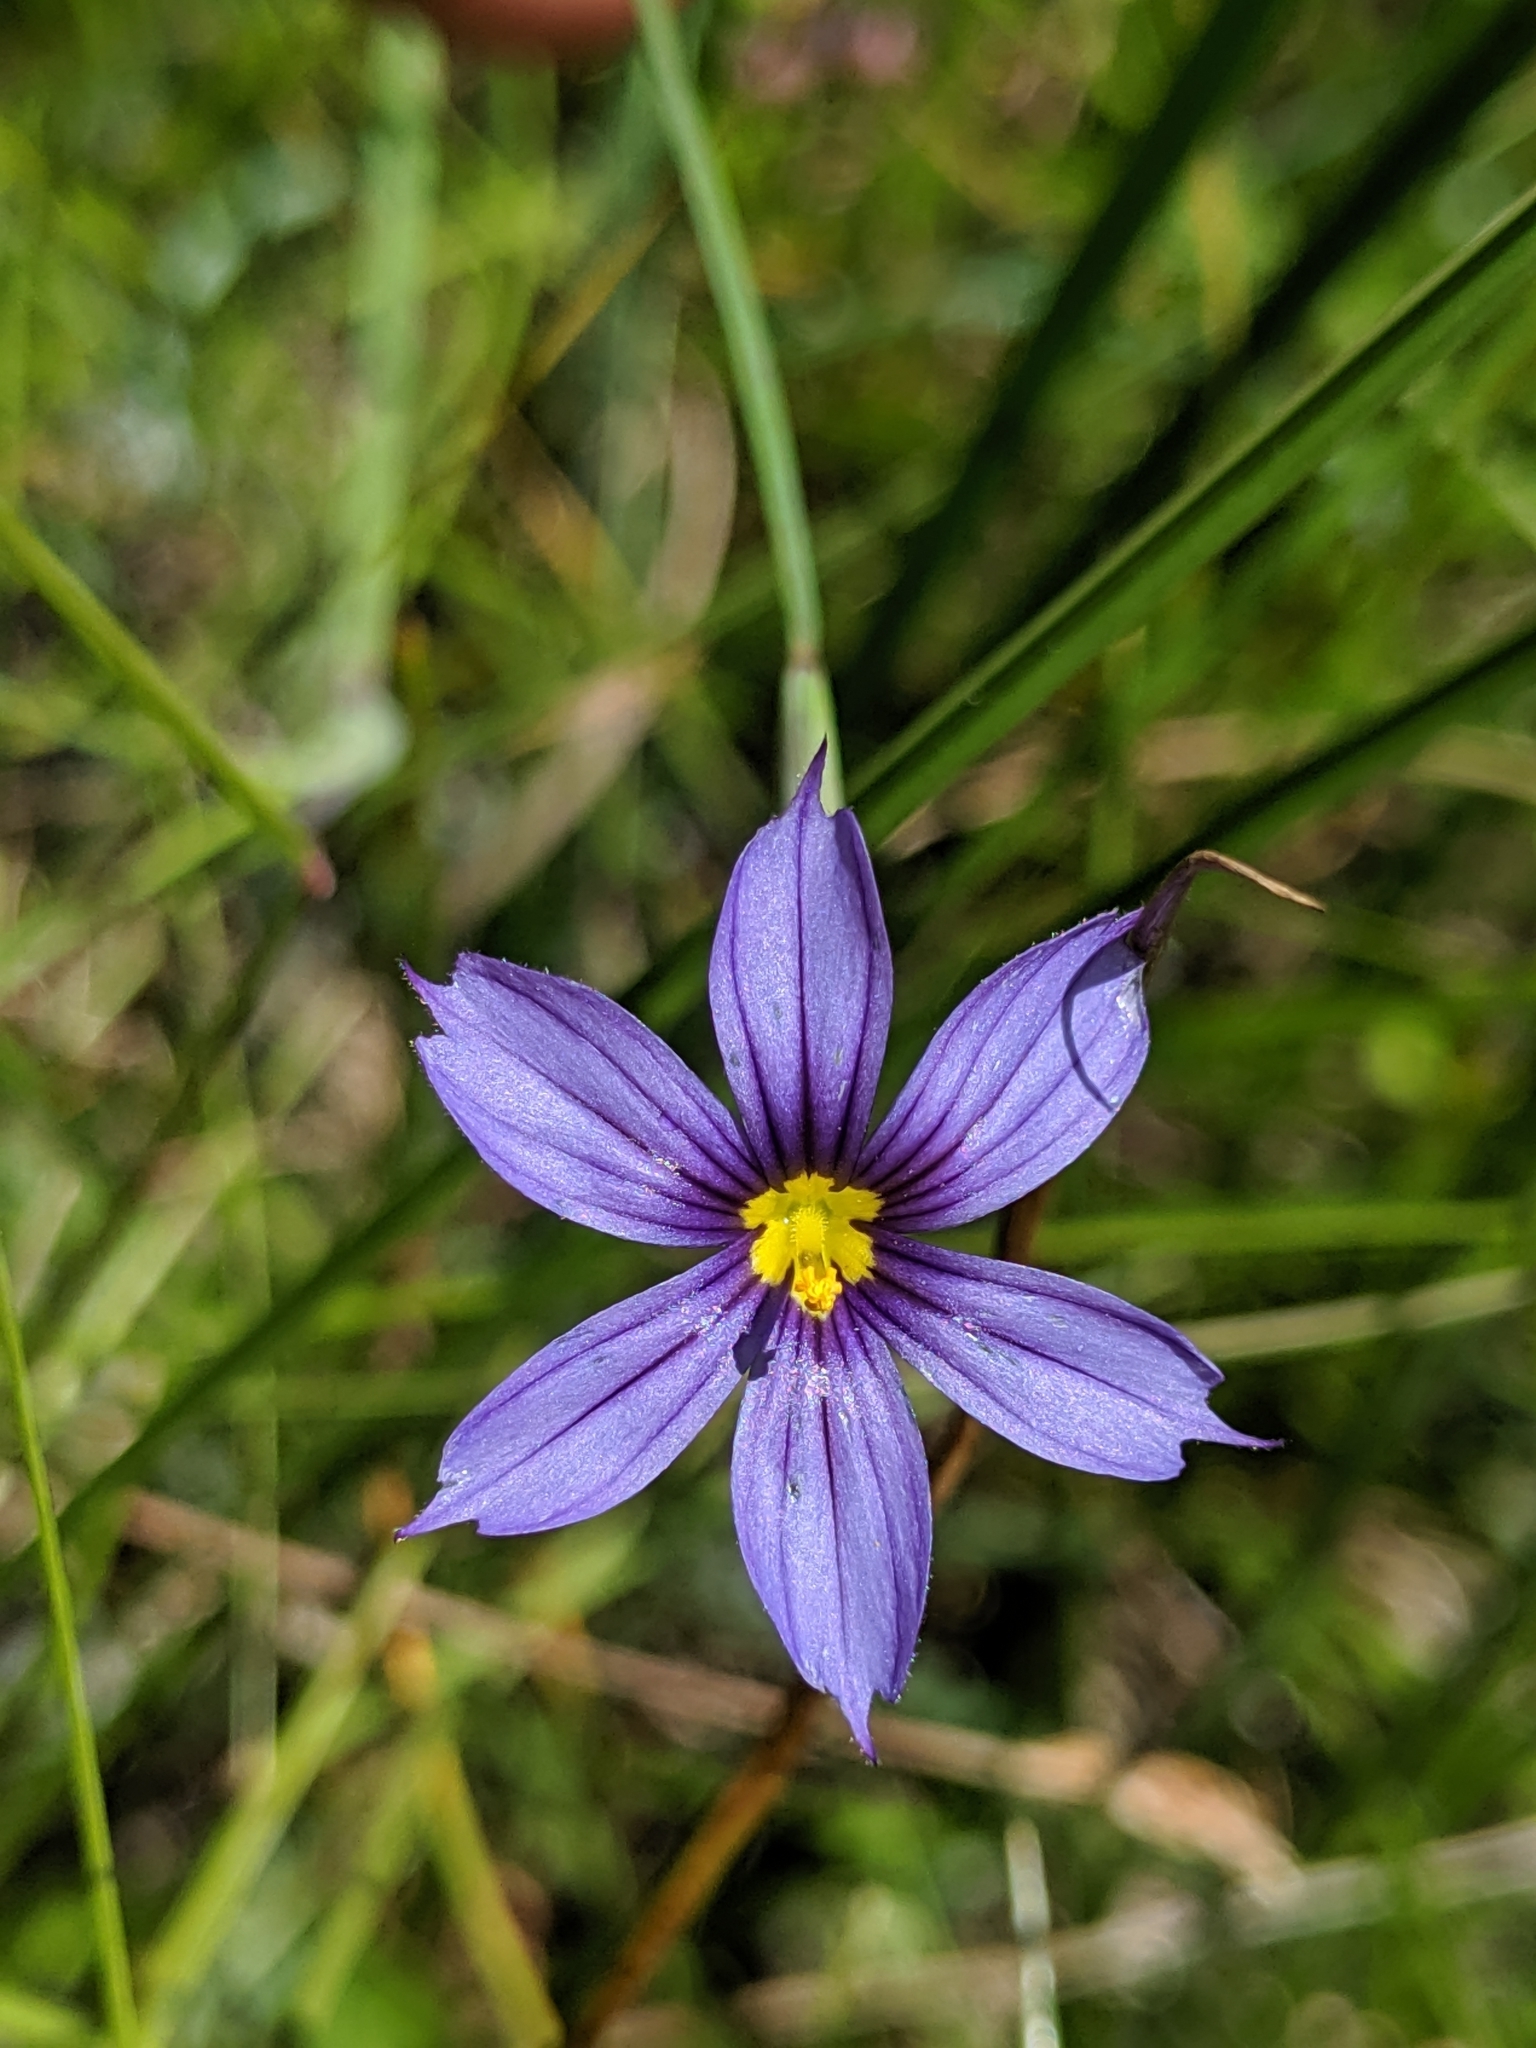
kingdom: Plantae
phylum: Tracheophyta
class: Liliopsida
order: Asparagales
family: Iridaceae
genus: Sisyrinchium
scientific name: Sisyrinchium bellum
